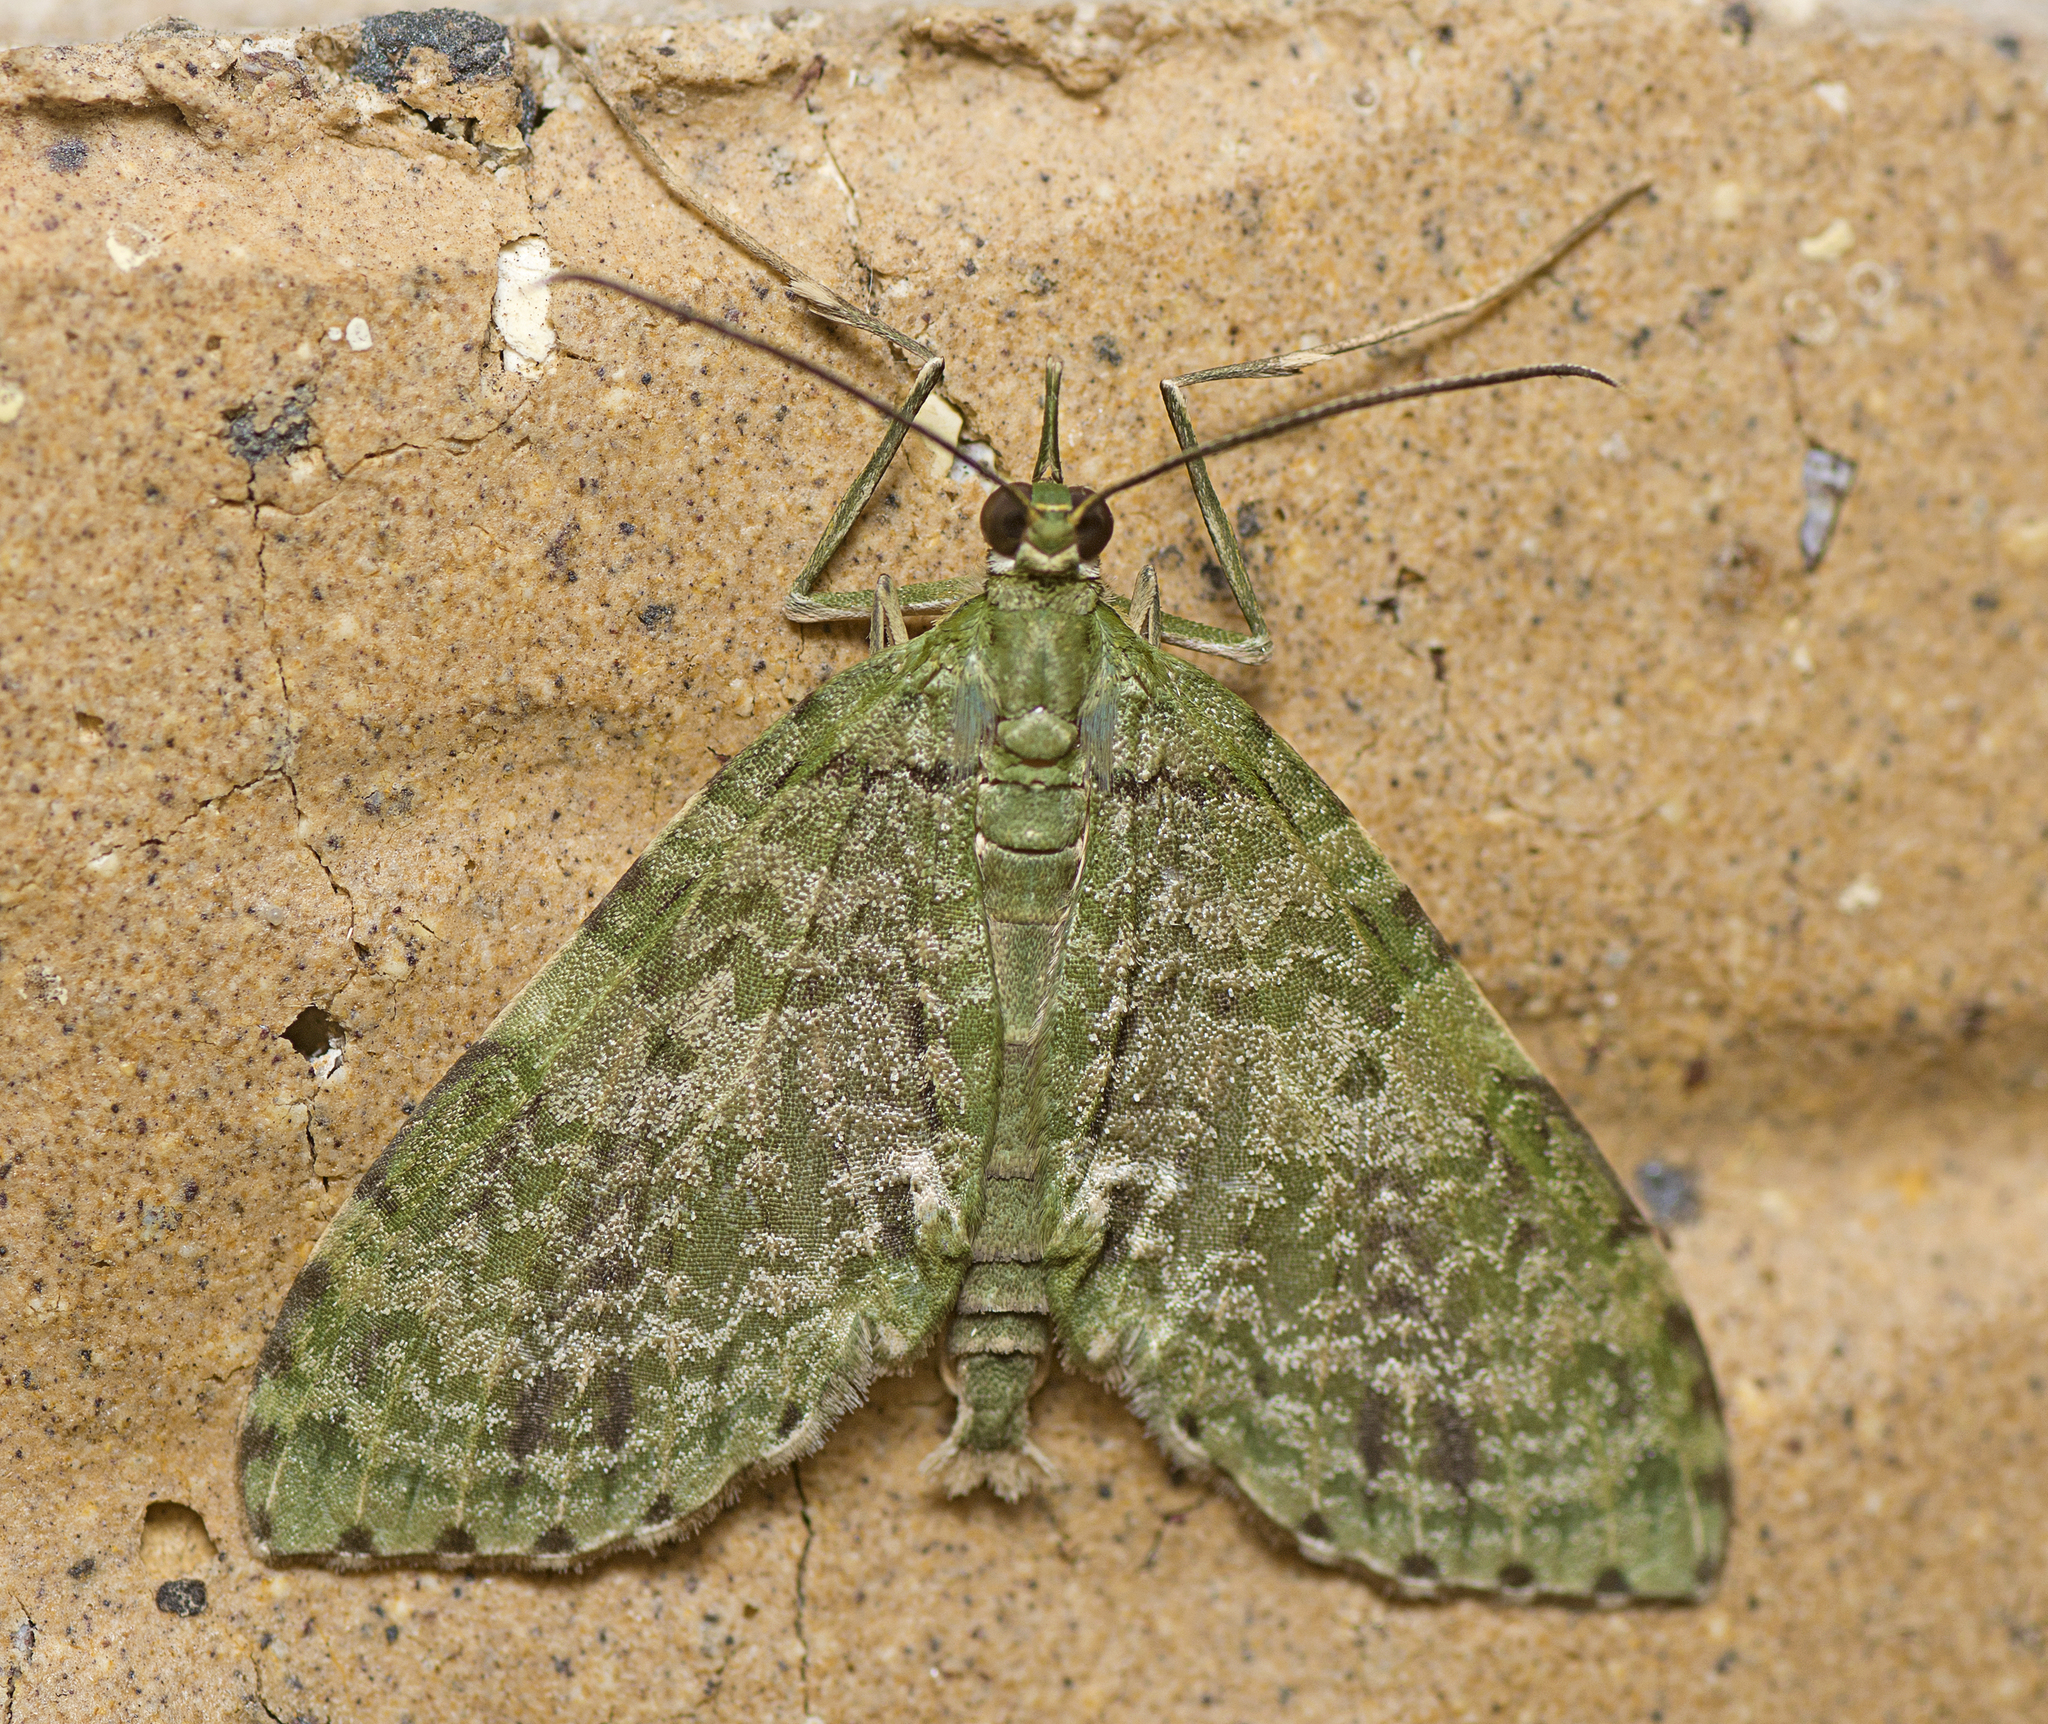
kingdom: Animalia
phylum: Arthropoda
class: Insecta
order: Lepidoptera
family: Geometridae
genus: Sauris
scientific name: Sauris malaca
